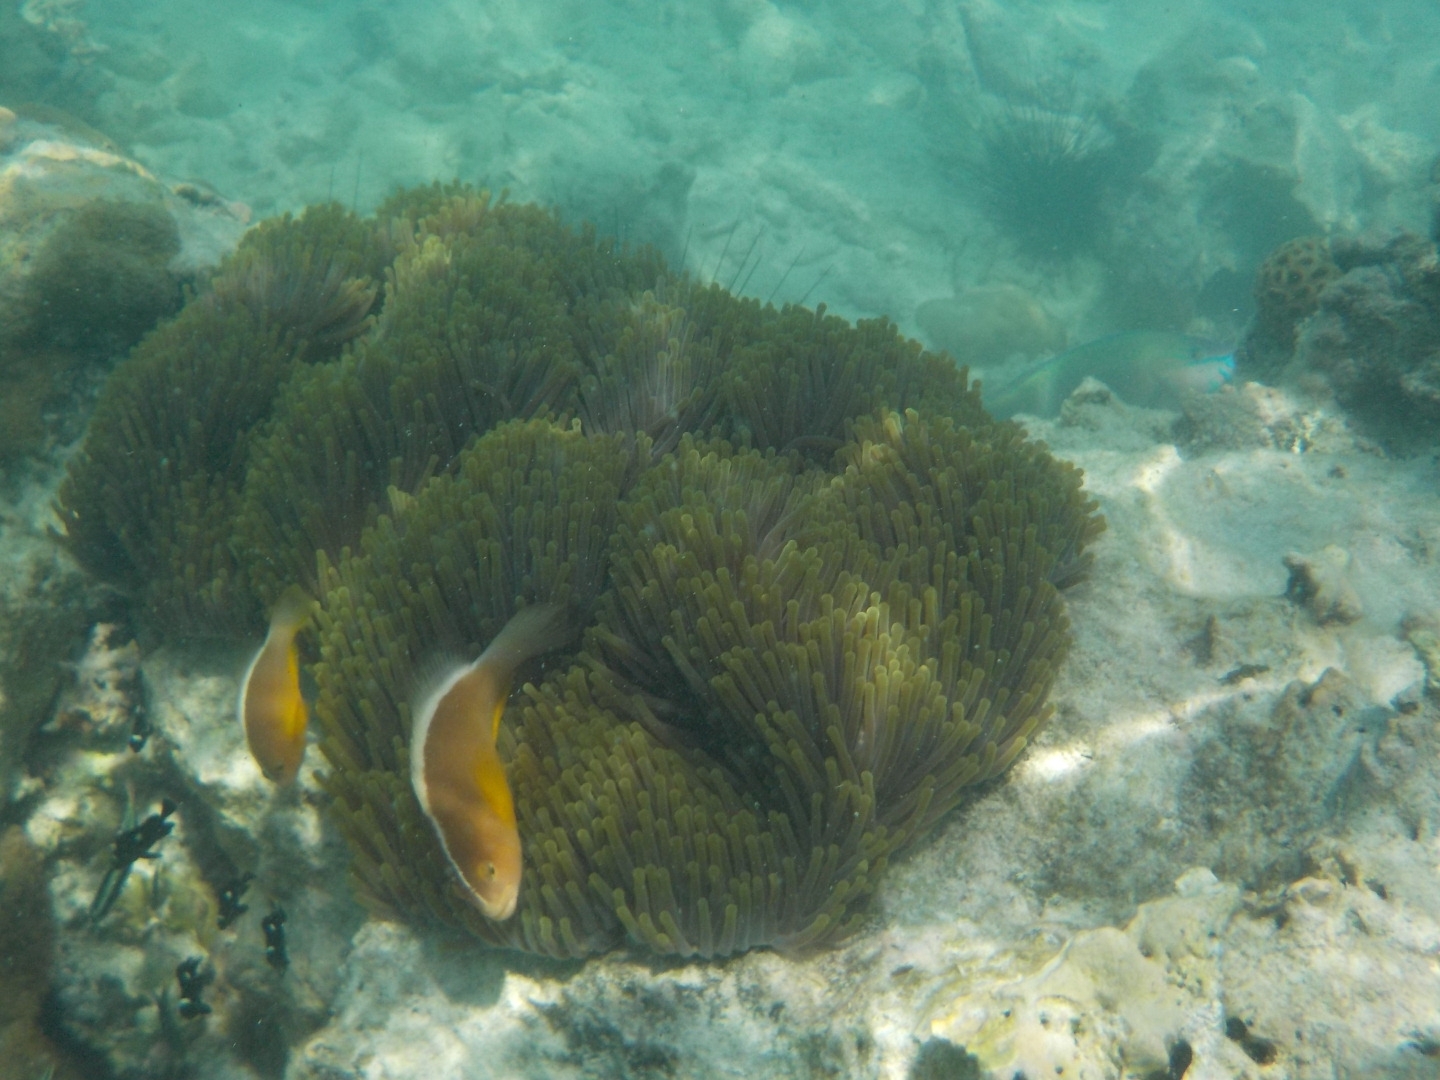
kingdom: Animalia
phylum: Chordata
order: Perciformes
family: Pomacentridae
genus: Amphiprion
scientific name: Amphiprion akallopisos
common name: Skunk clownfish
